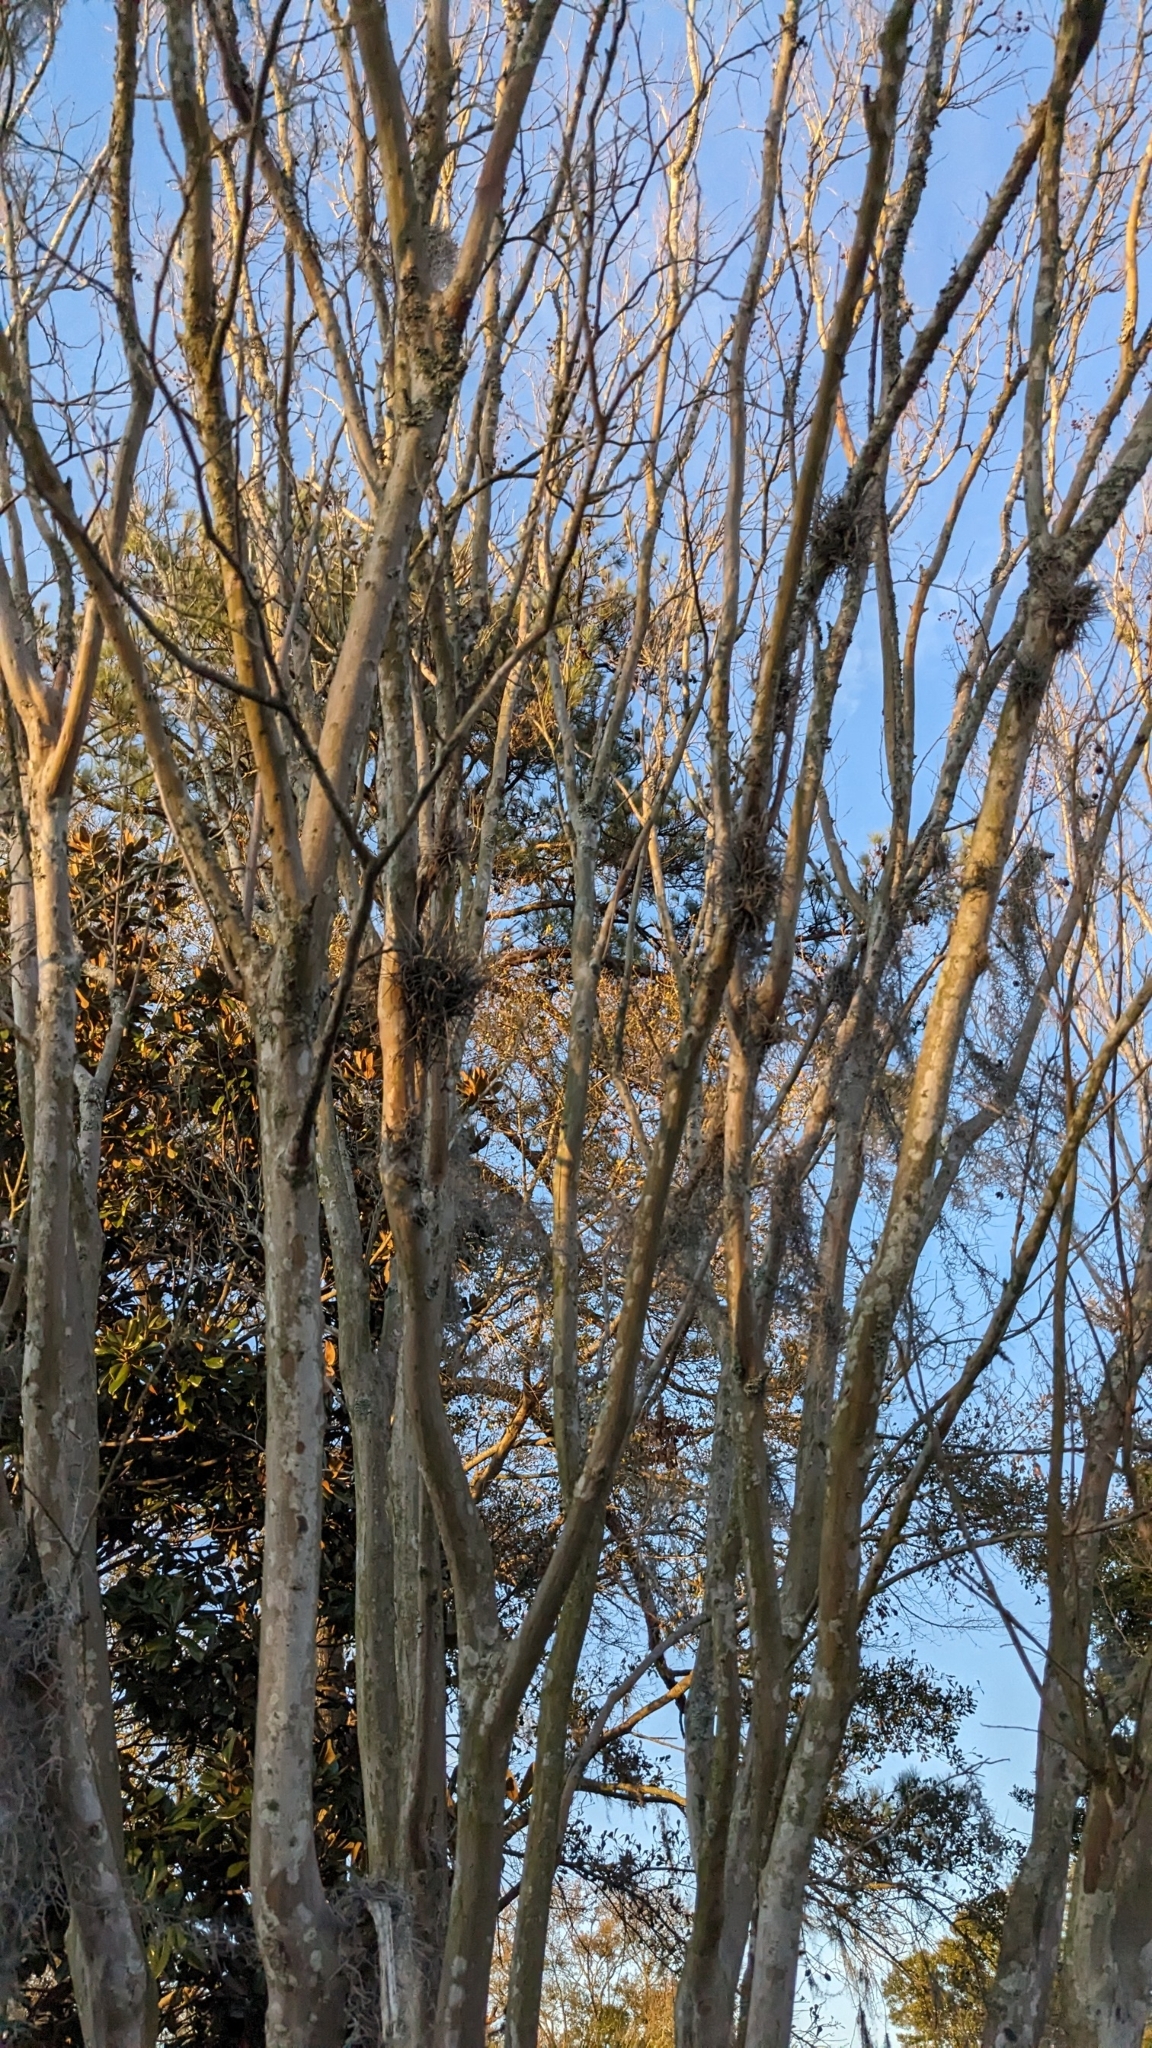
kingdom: Plantae
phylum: Tracheophyta
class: Liliopsida
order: Poales
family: Bromeliaceae
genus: Tillandsia
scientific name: Tillandsia recurvata
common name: Small ballmoss
